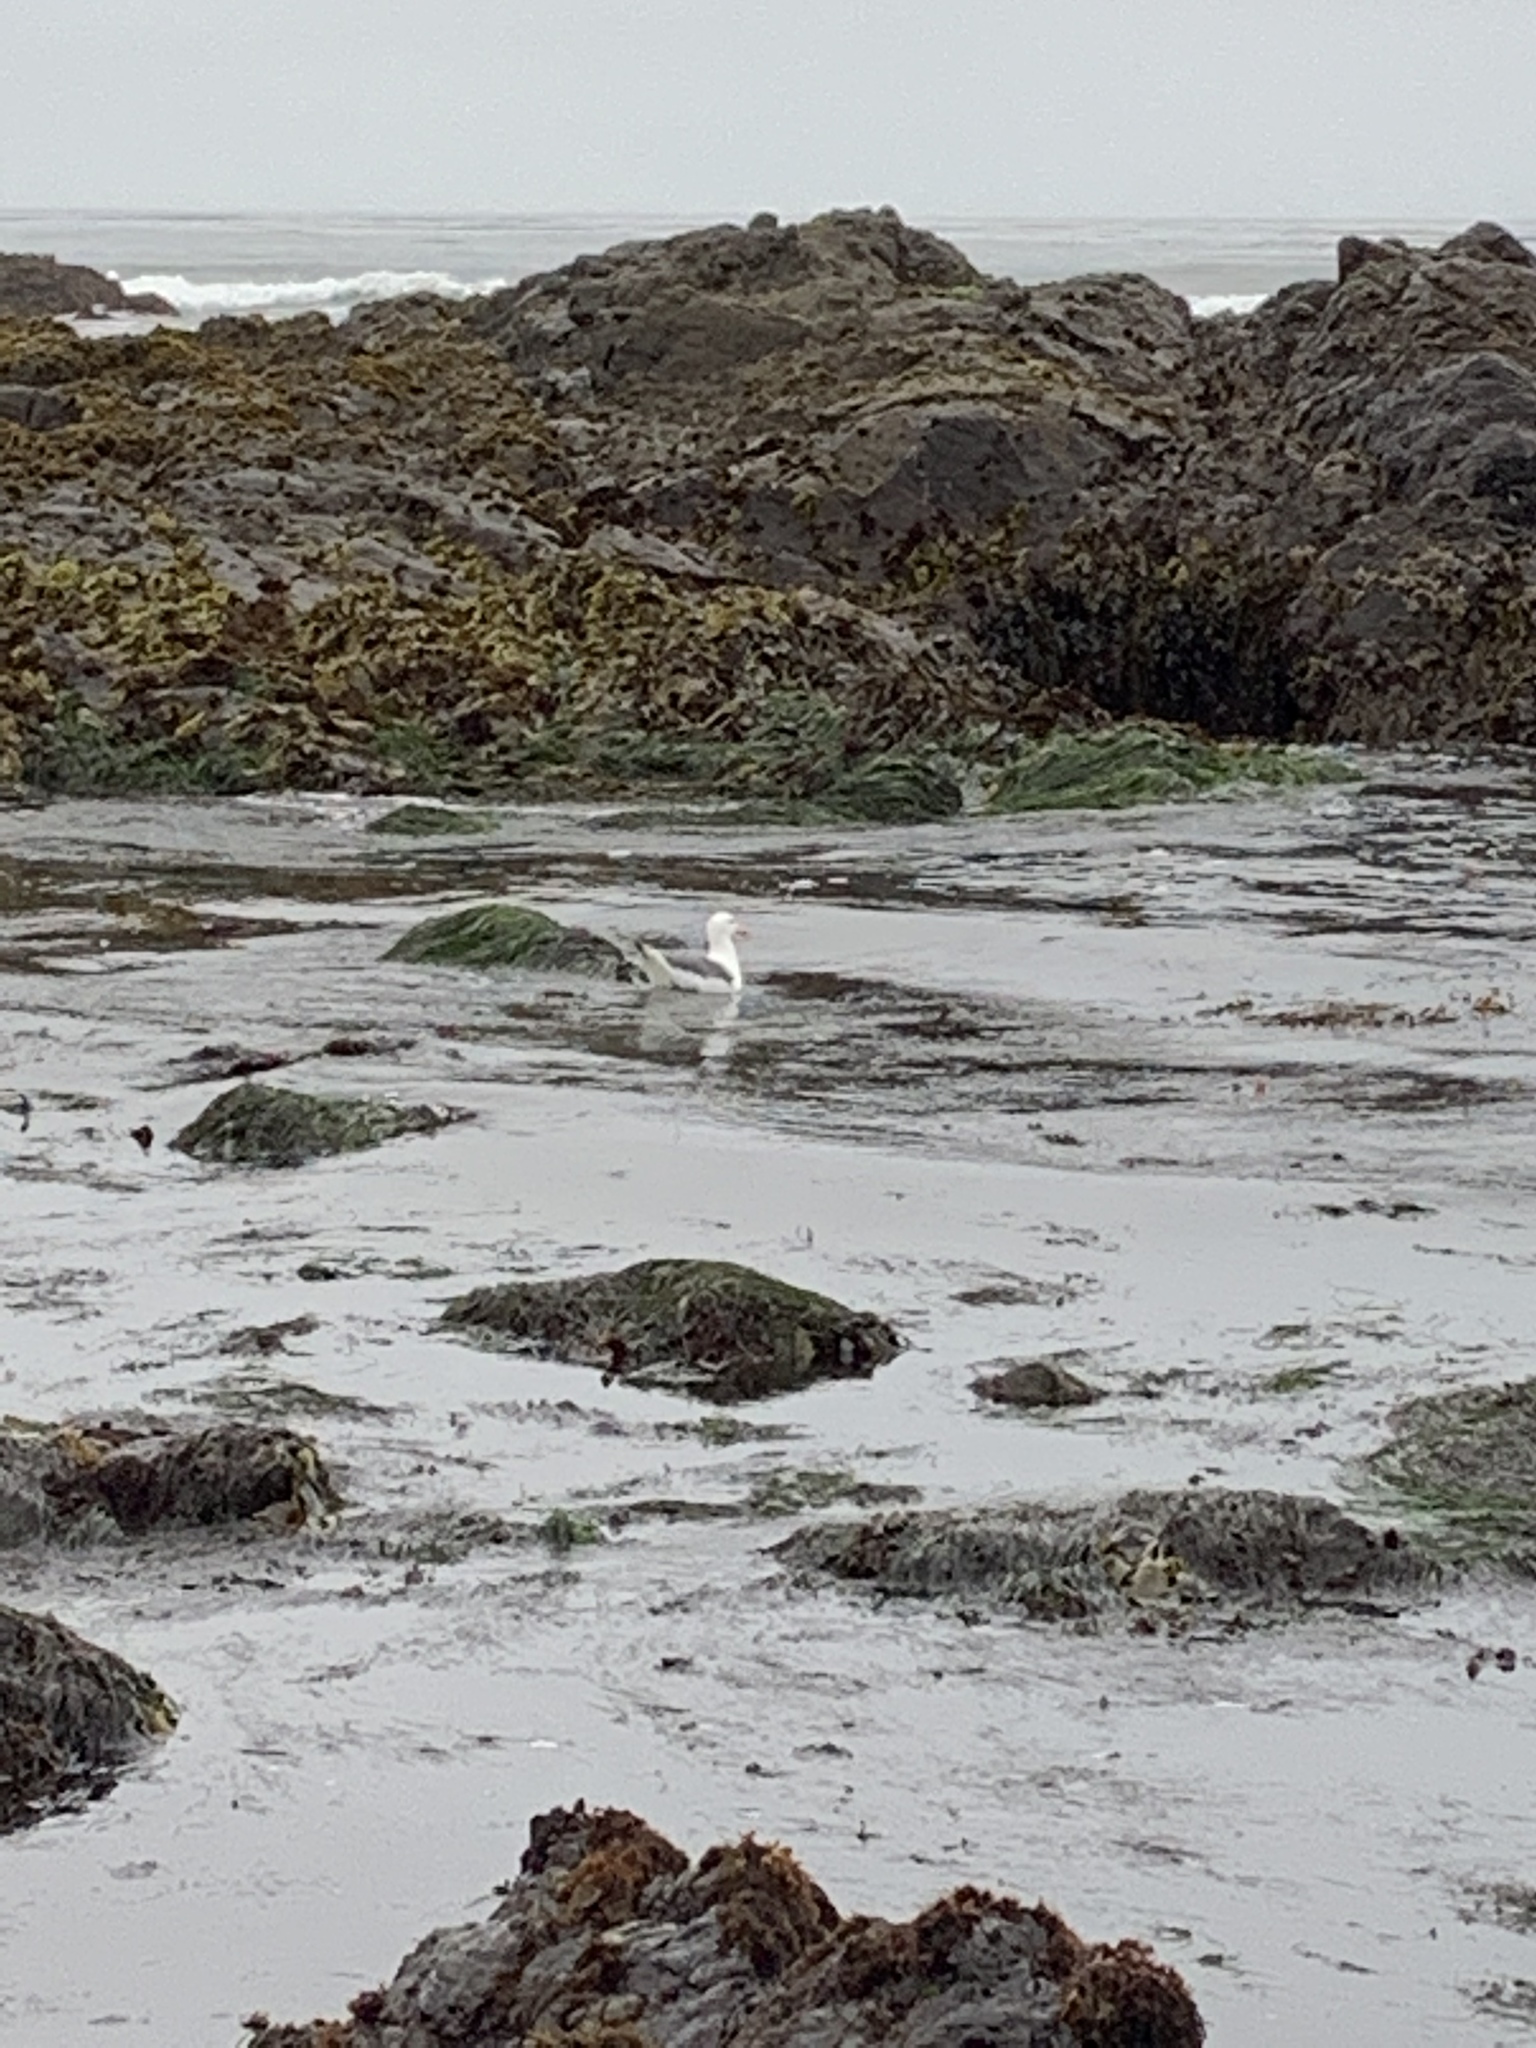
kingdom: Animalia
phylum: Chordata
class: Aves
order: Charadriiformes
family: Laridae
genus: Larus
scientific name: Larus occidentalis
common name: Western gull
